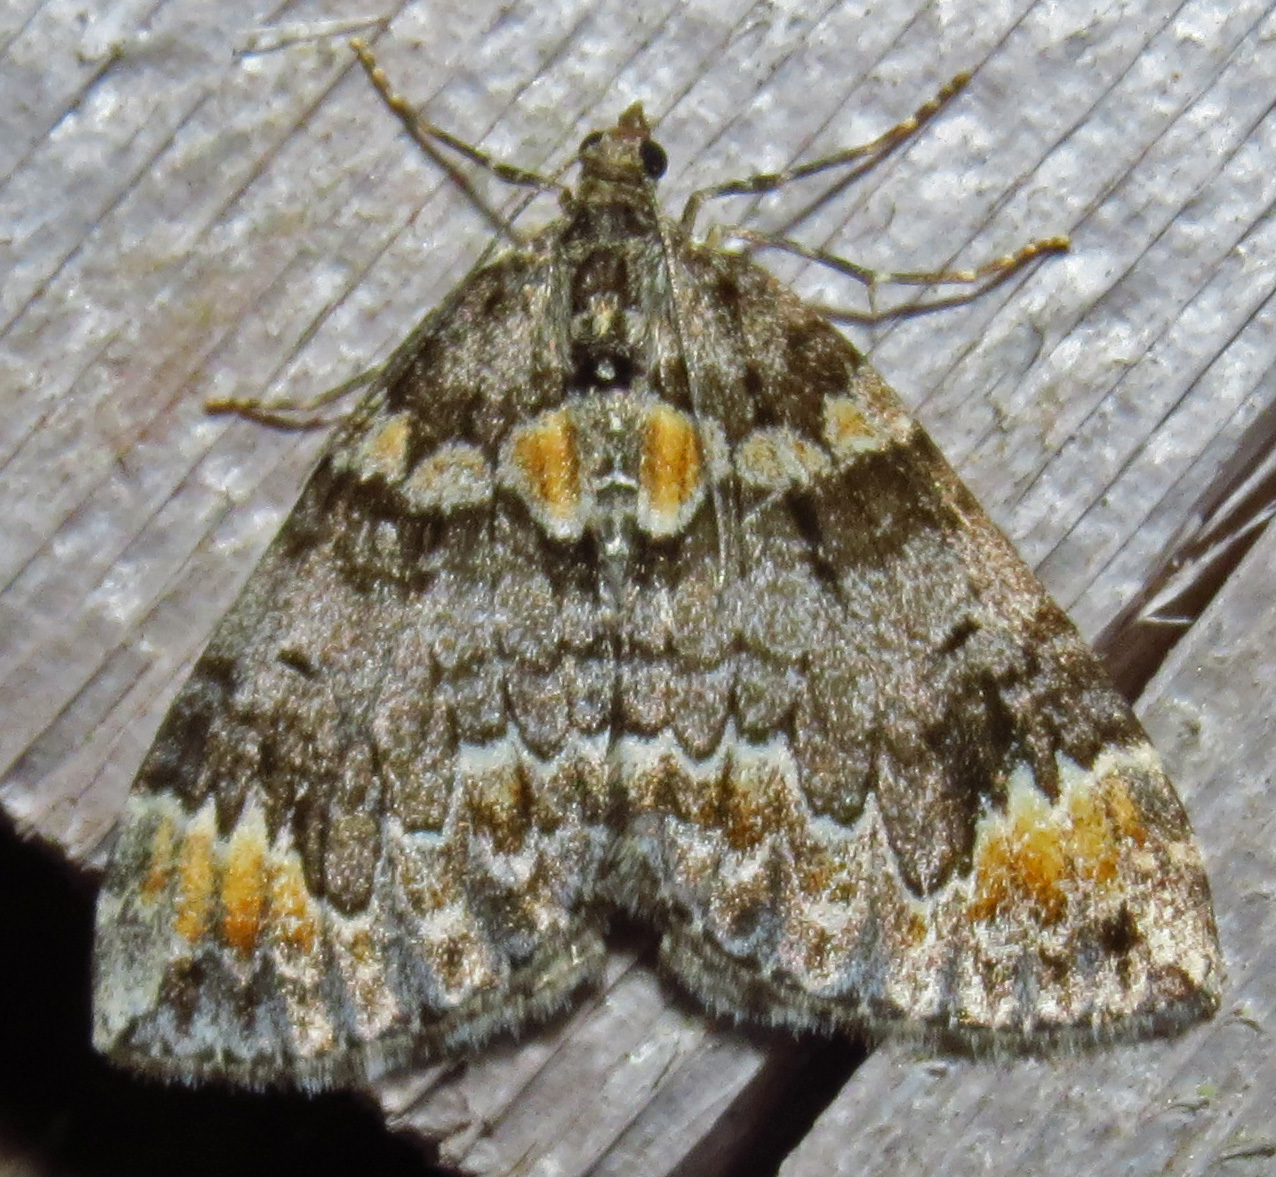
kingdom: Animalia
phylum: Arthropoda
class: Insecta
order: Lepidoptera
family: Geometridae
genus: Dysstroma
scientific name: Dysstroma walkerata
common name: Marbled carpet
